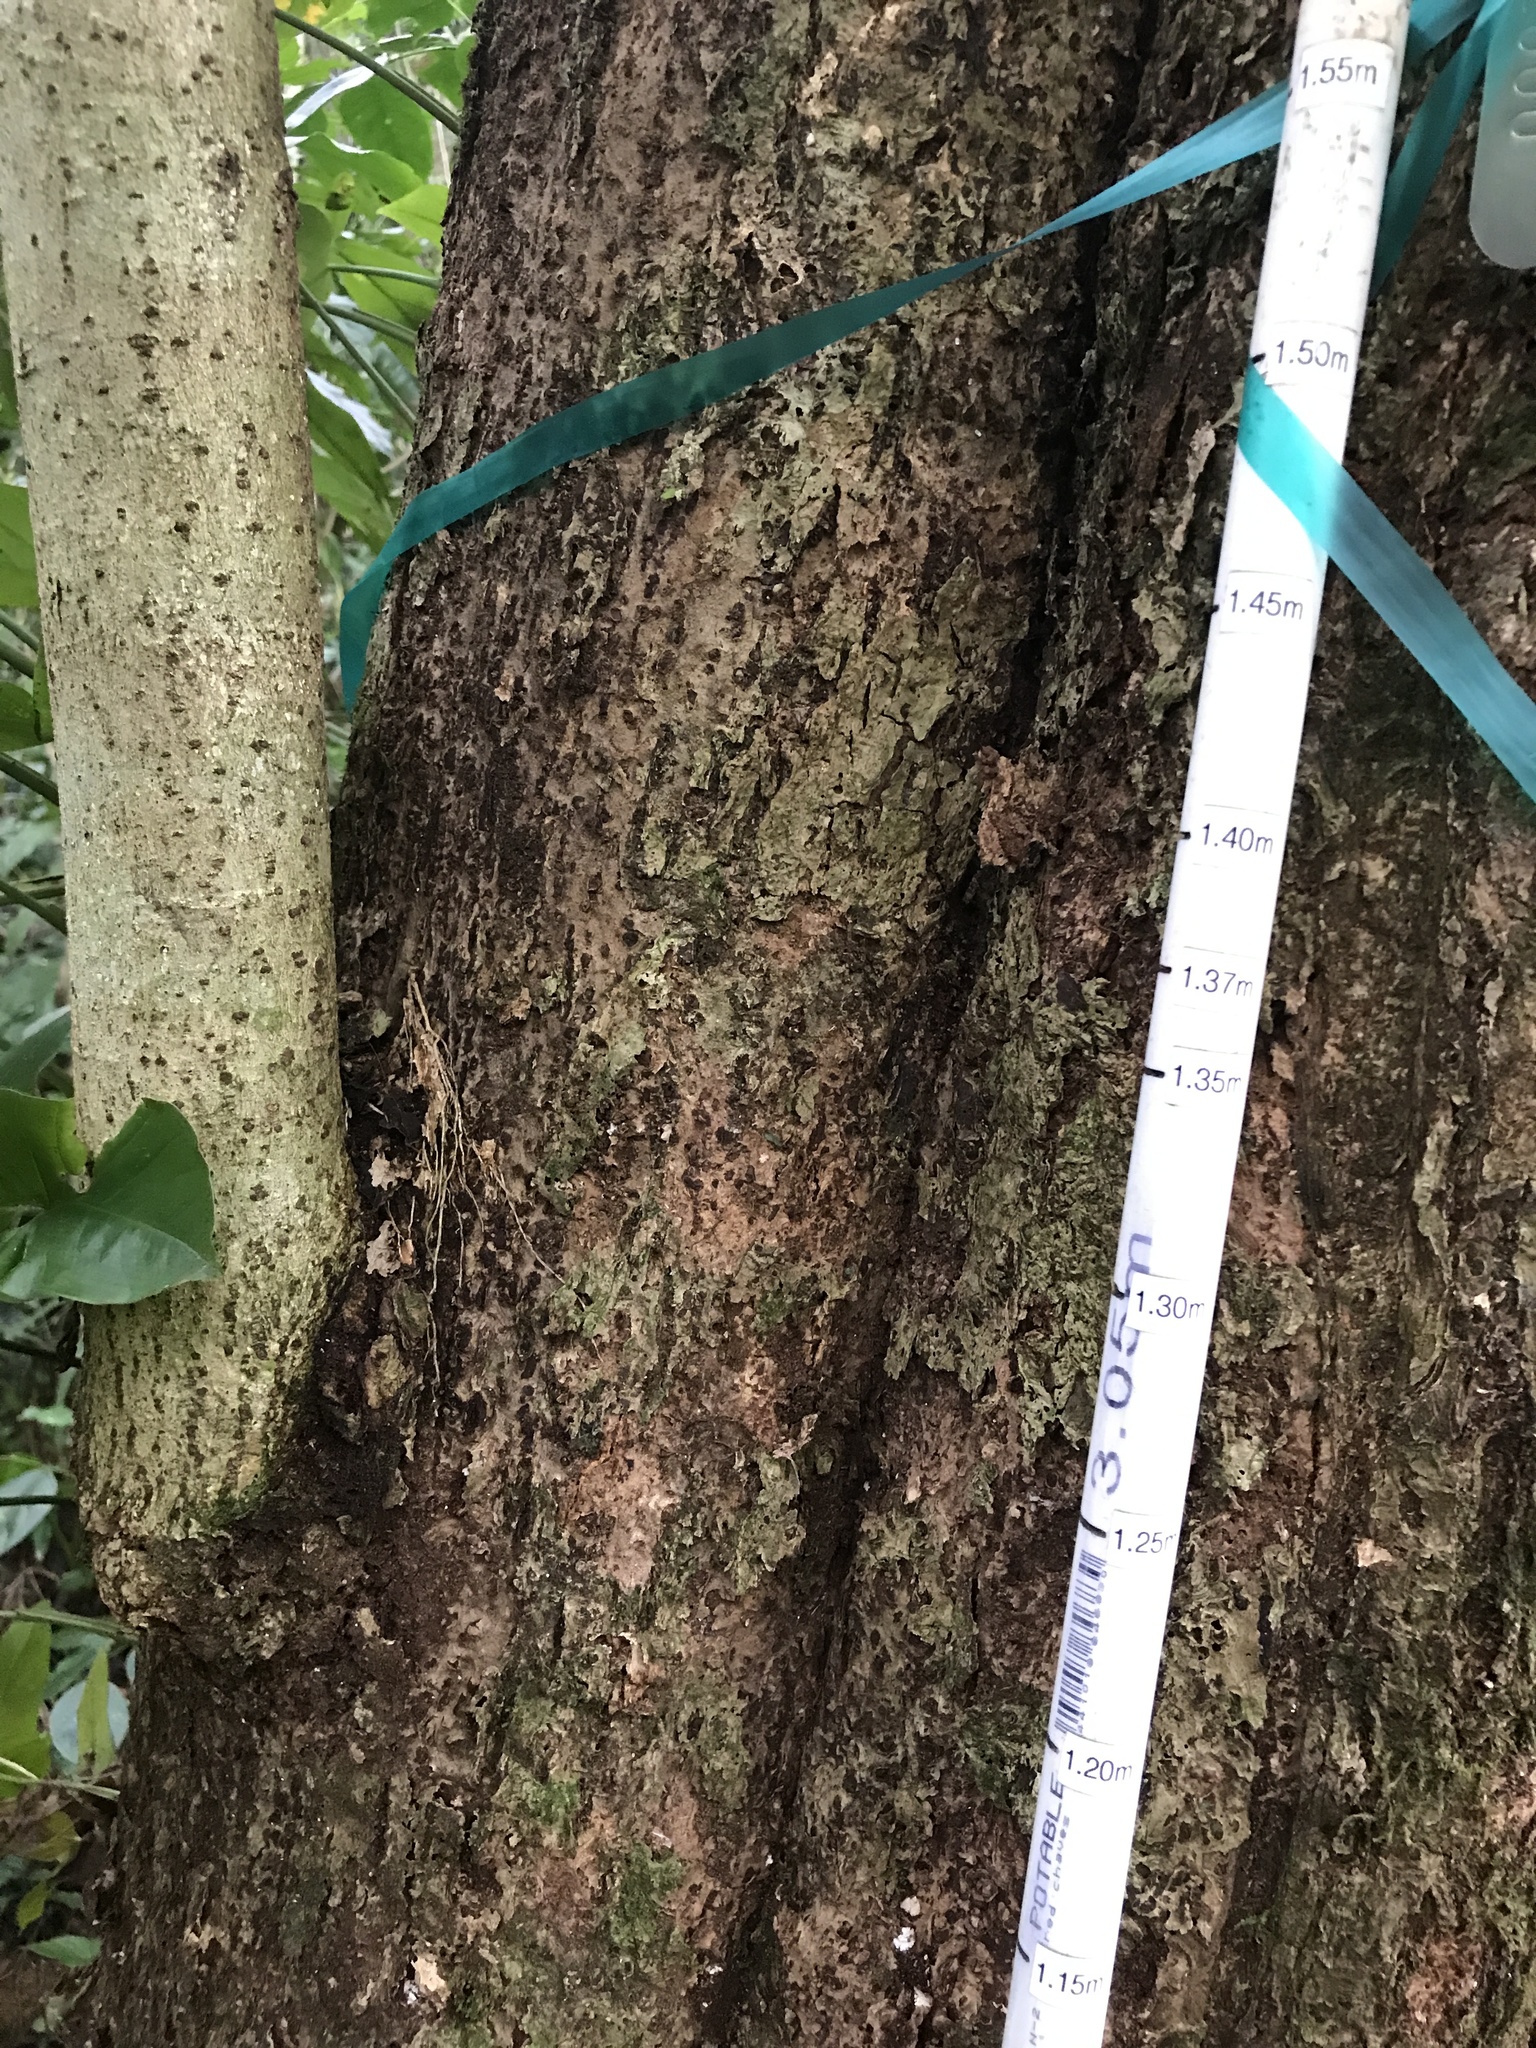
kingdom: Plantae
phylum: Tracheophyta
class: Magnoliopsida
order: Malvales
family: Malvaceae
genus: Talipariti
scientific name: Talipariti
